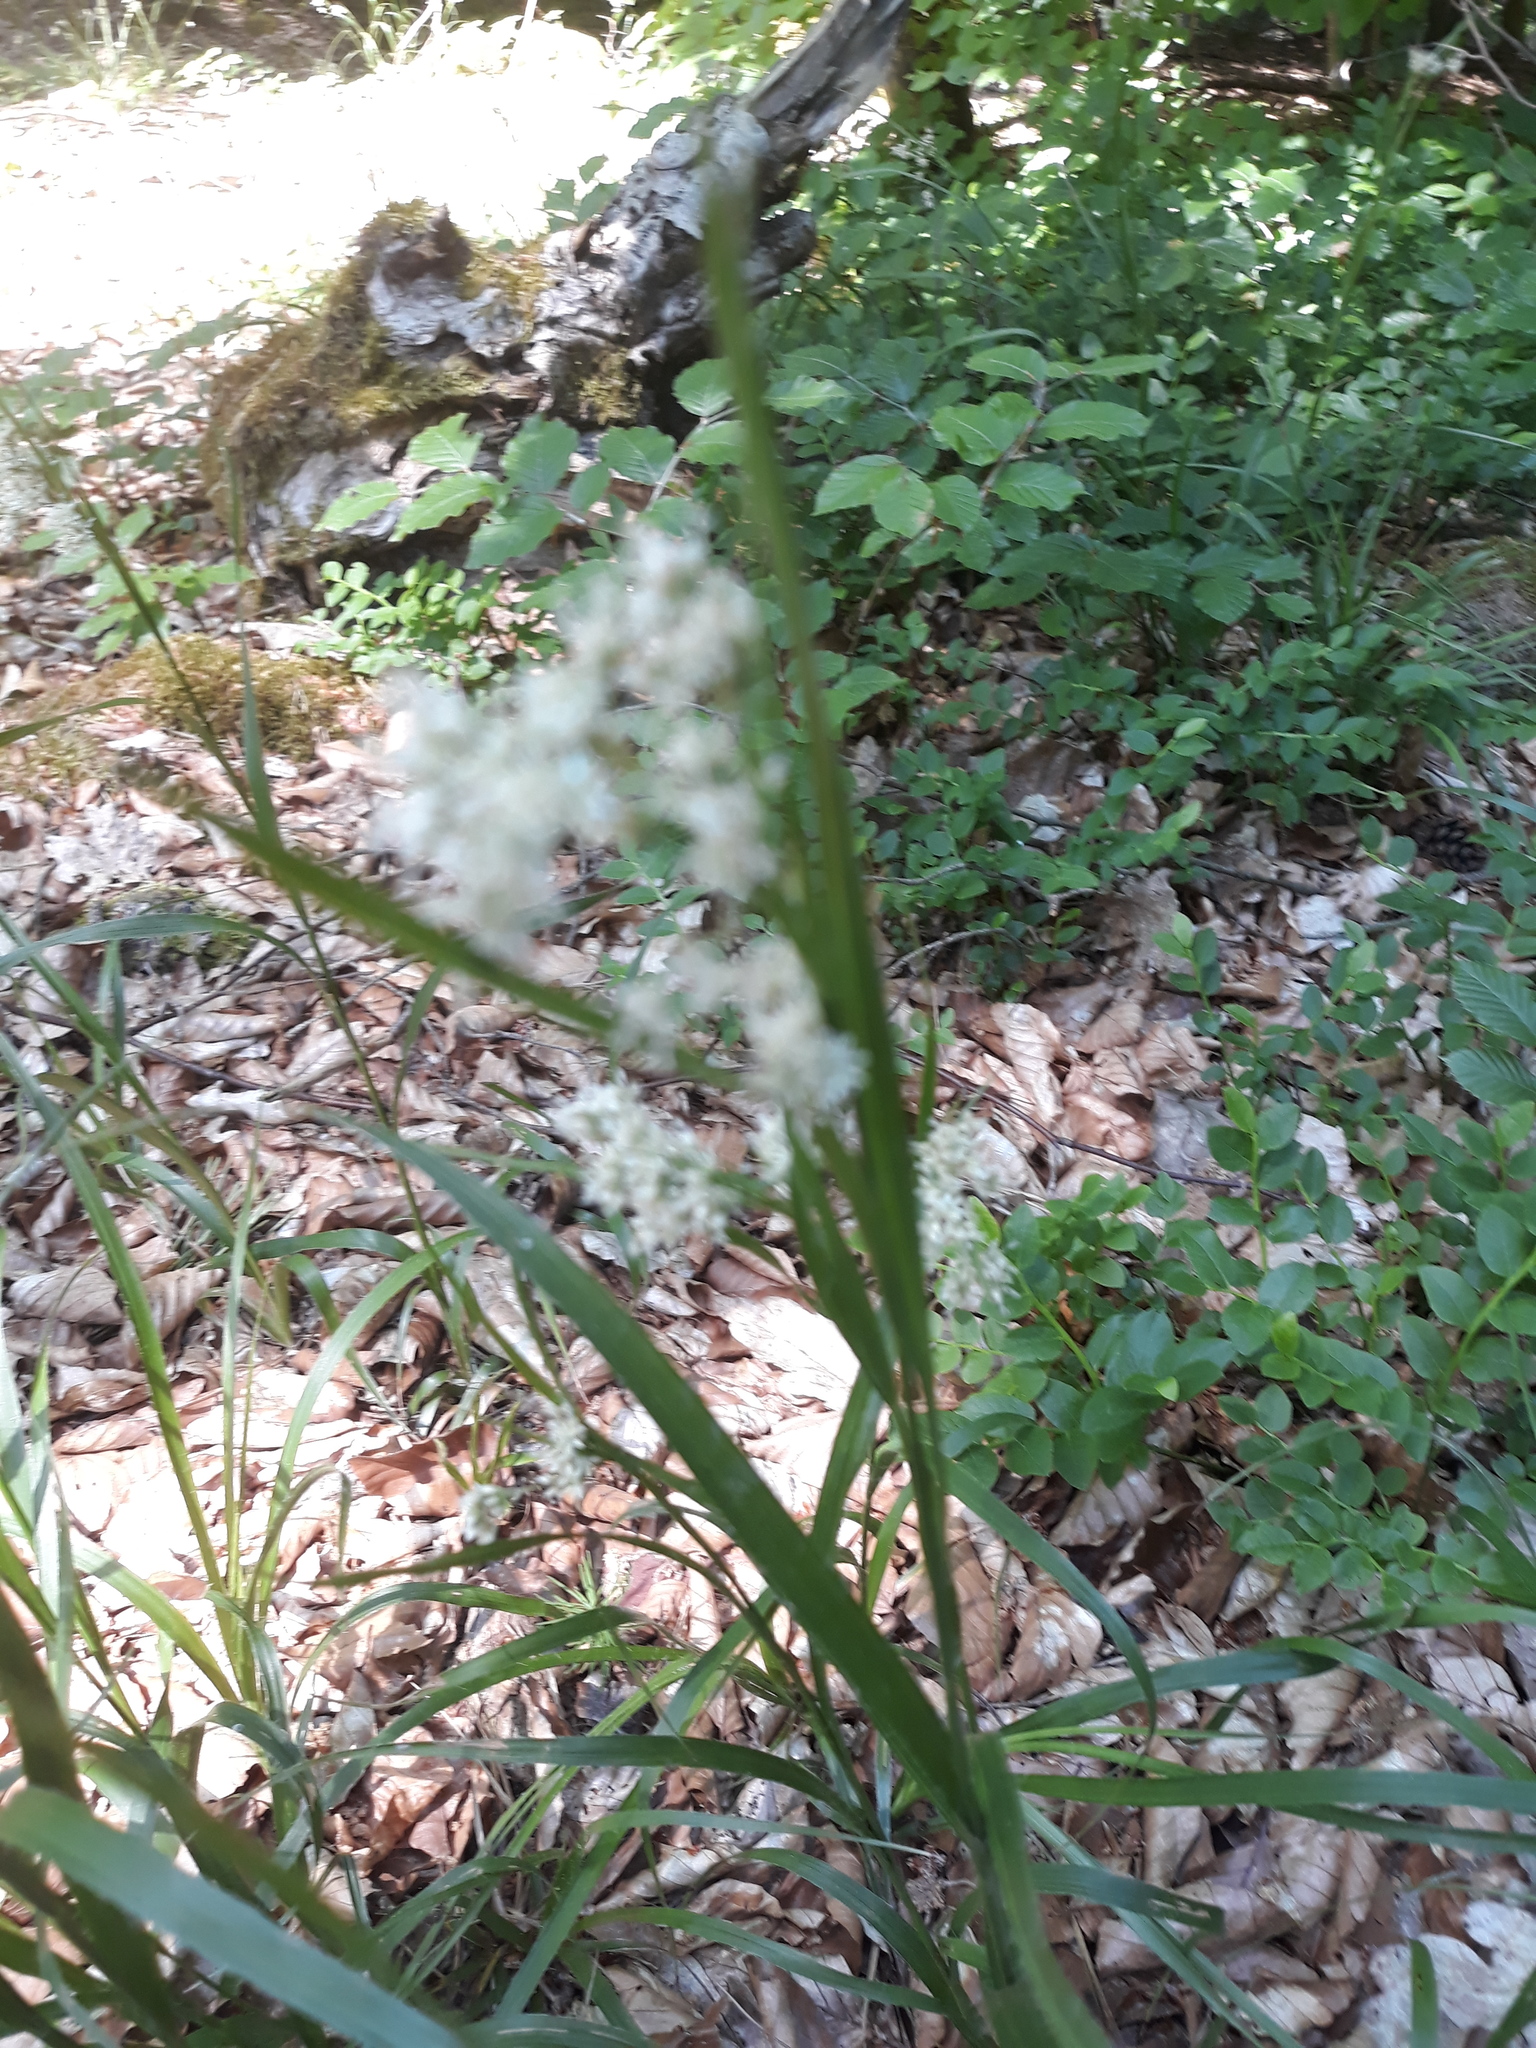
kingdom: Plantae
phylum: Tracheophyta
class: Liliopsida
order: Poales
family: Juncaceae
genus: Luzula
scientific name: Luzula luzuloides
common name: White wood-rush
